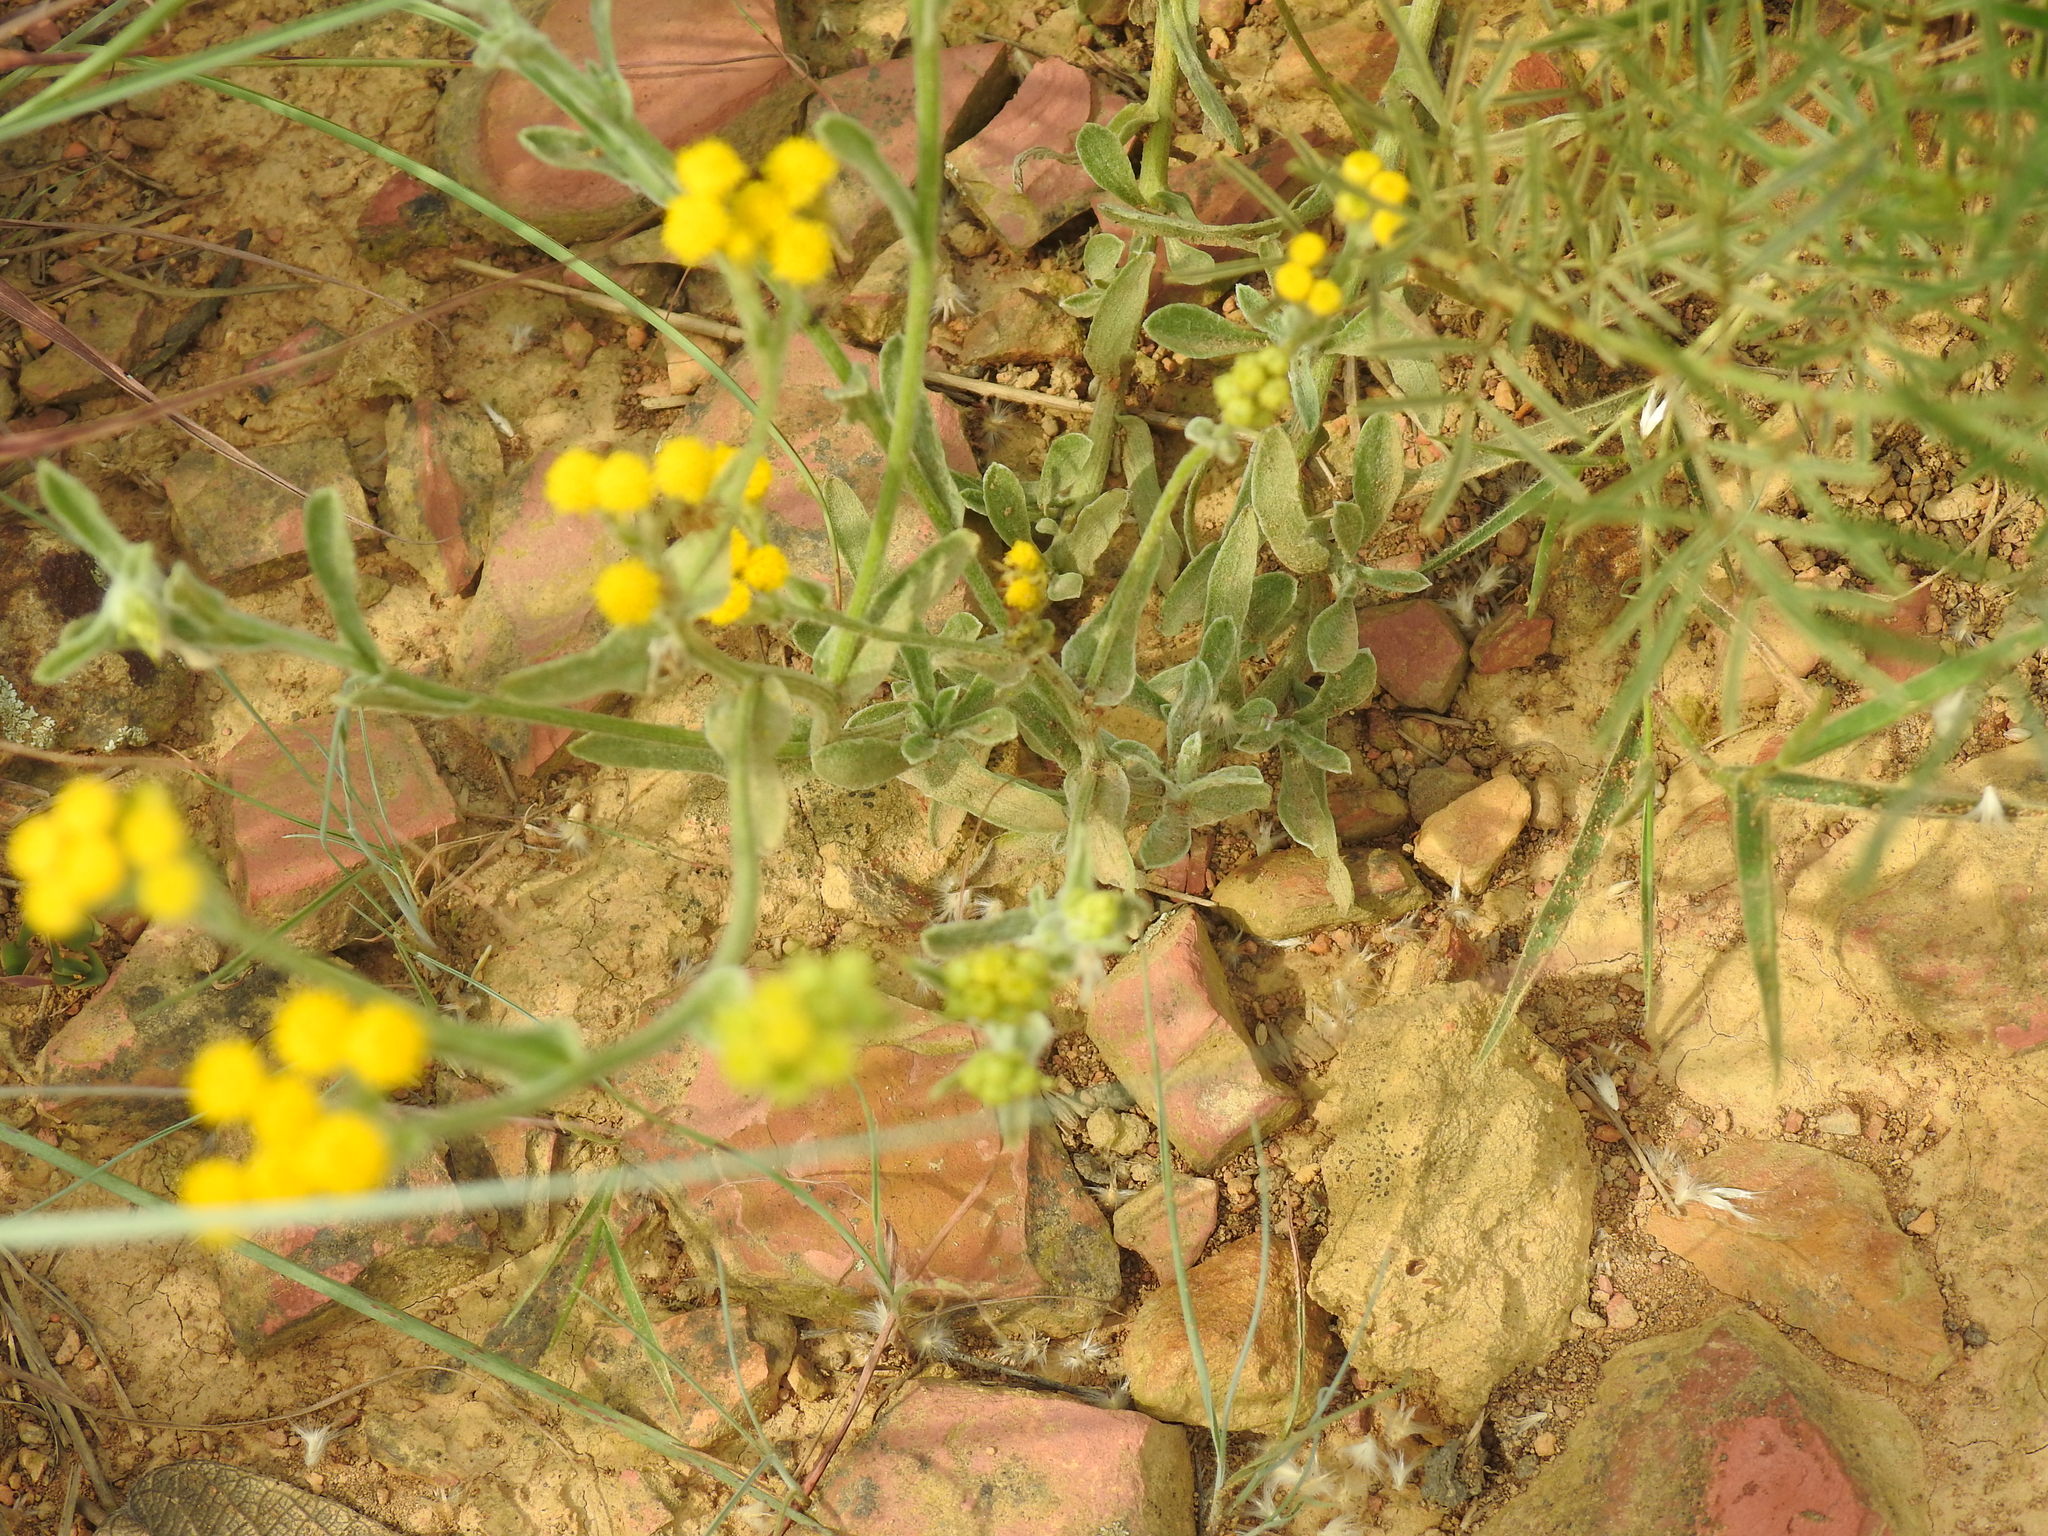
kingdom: Plantae
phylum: Tracheophyta
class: Magnoliopsida
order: Asterales
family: Asteraceae
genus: Nidorella
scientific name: Nidorella hottentotica
